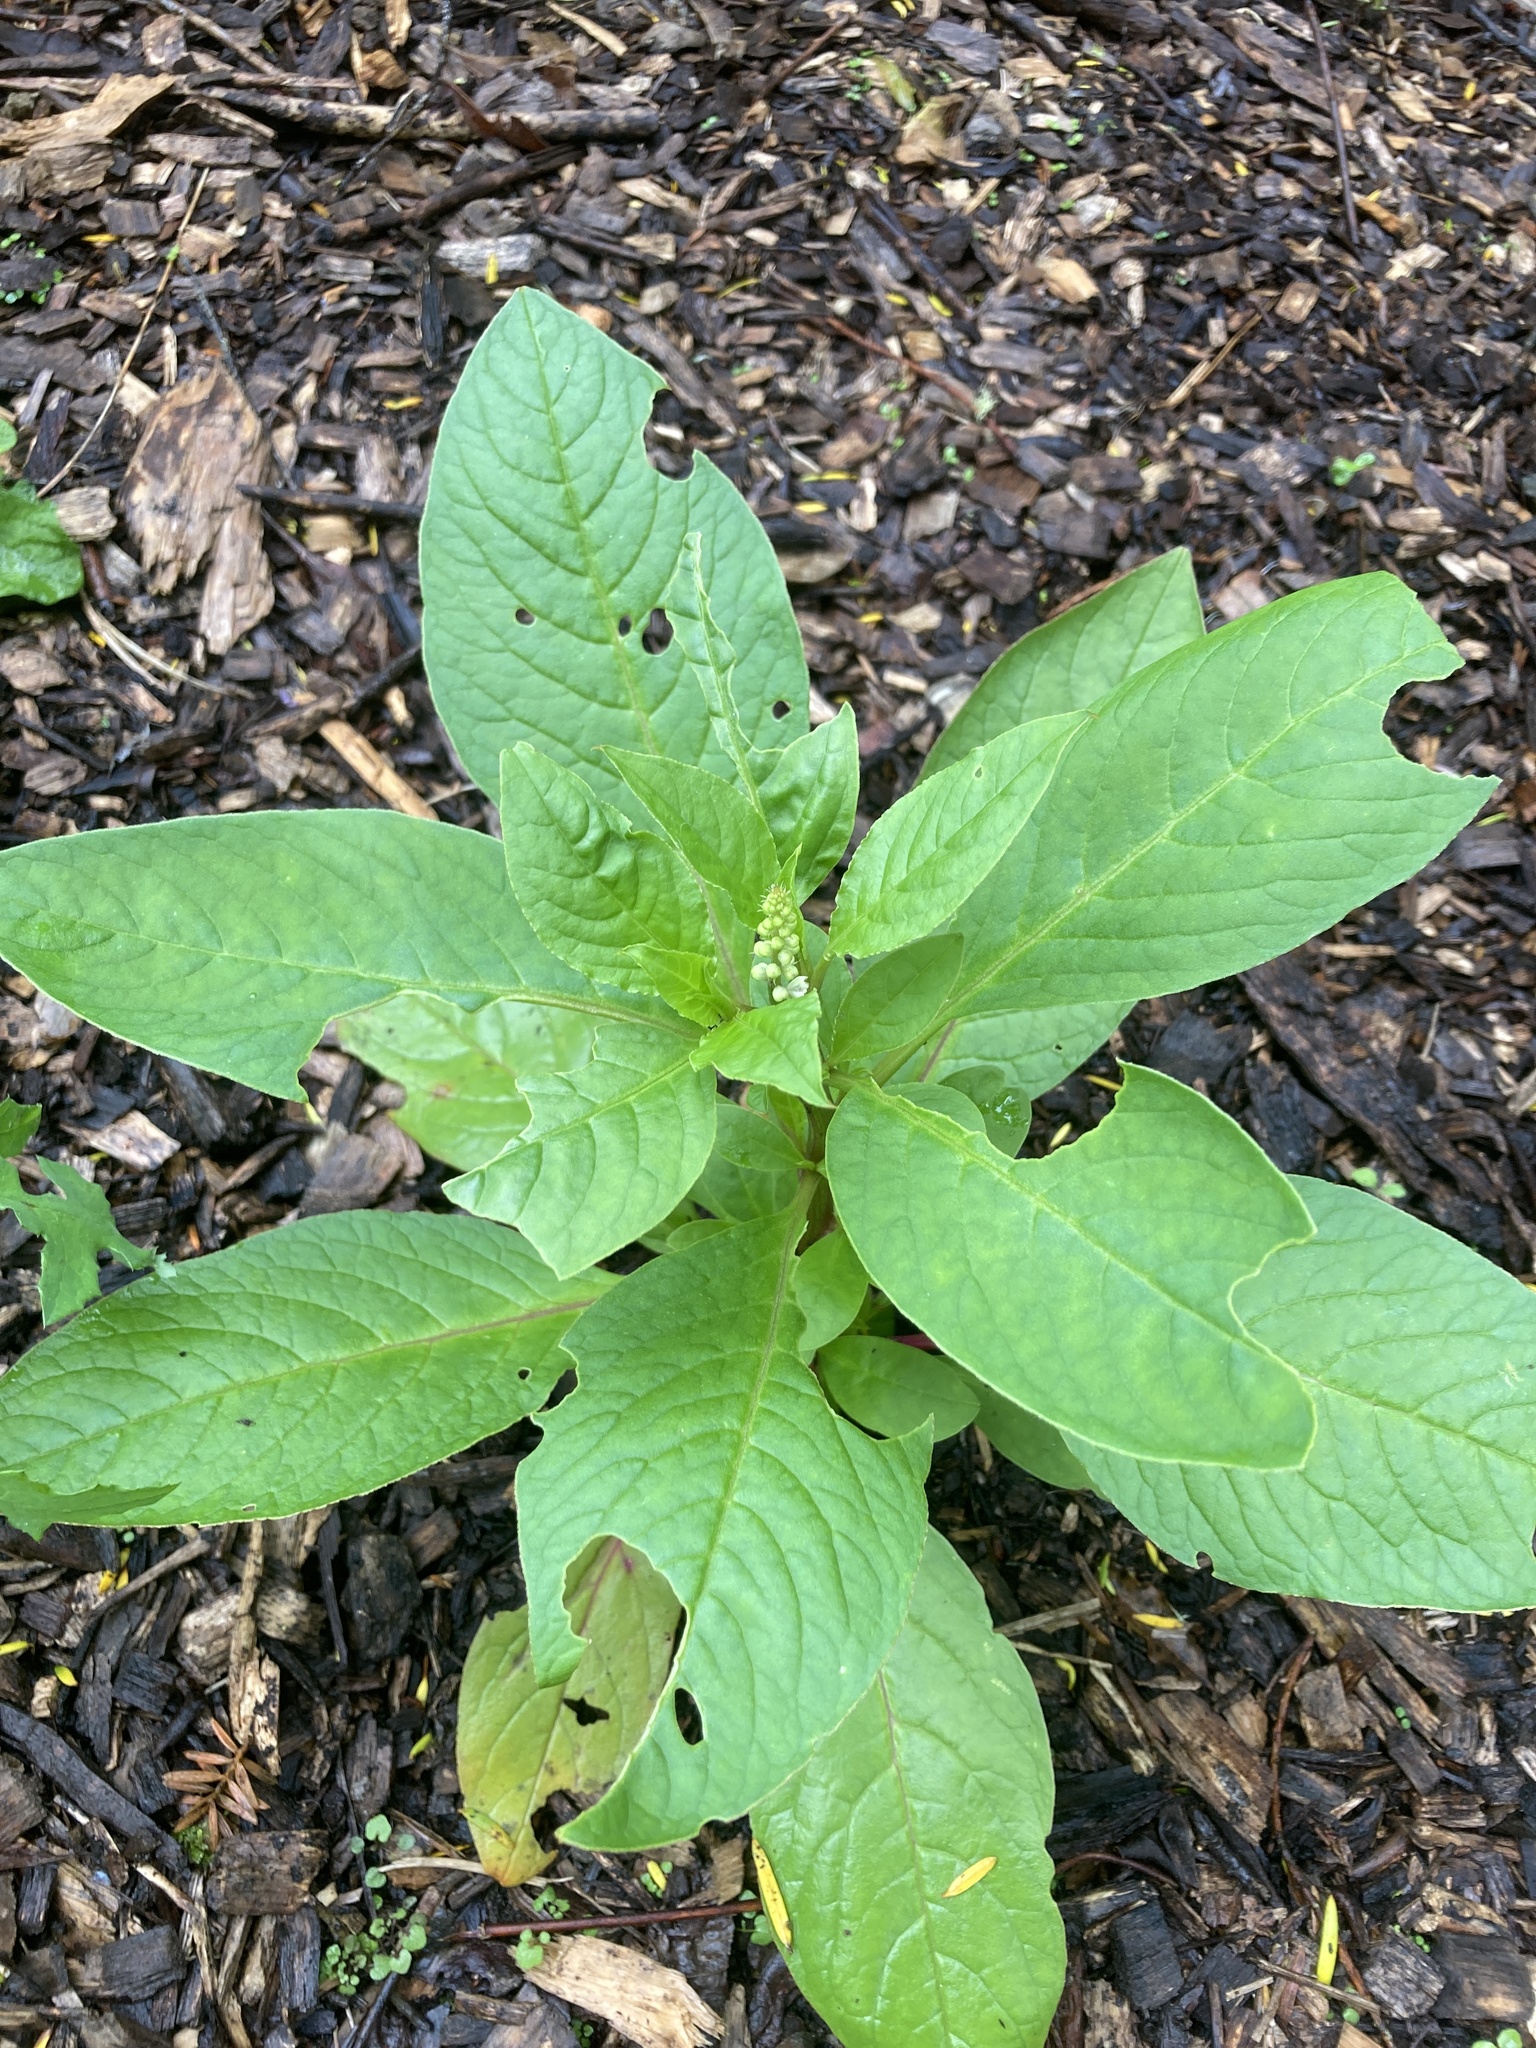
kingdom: Plantae
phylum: Tracheophyta
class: Magnoliopsida
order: Caryophyllales
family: Phytolaccaceae
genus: Phytolacca
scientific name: Phytolacca icosandra
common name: Button pokeweed
